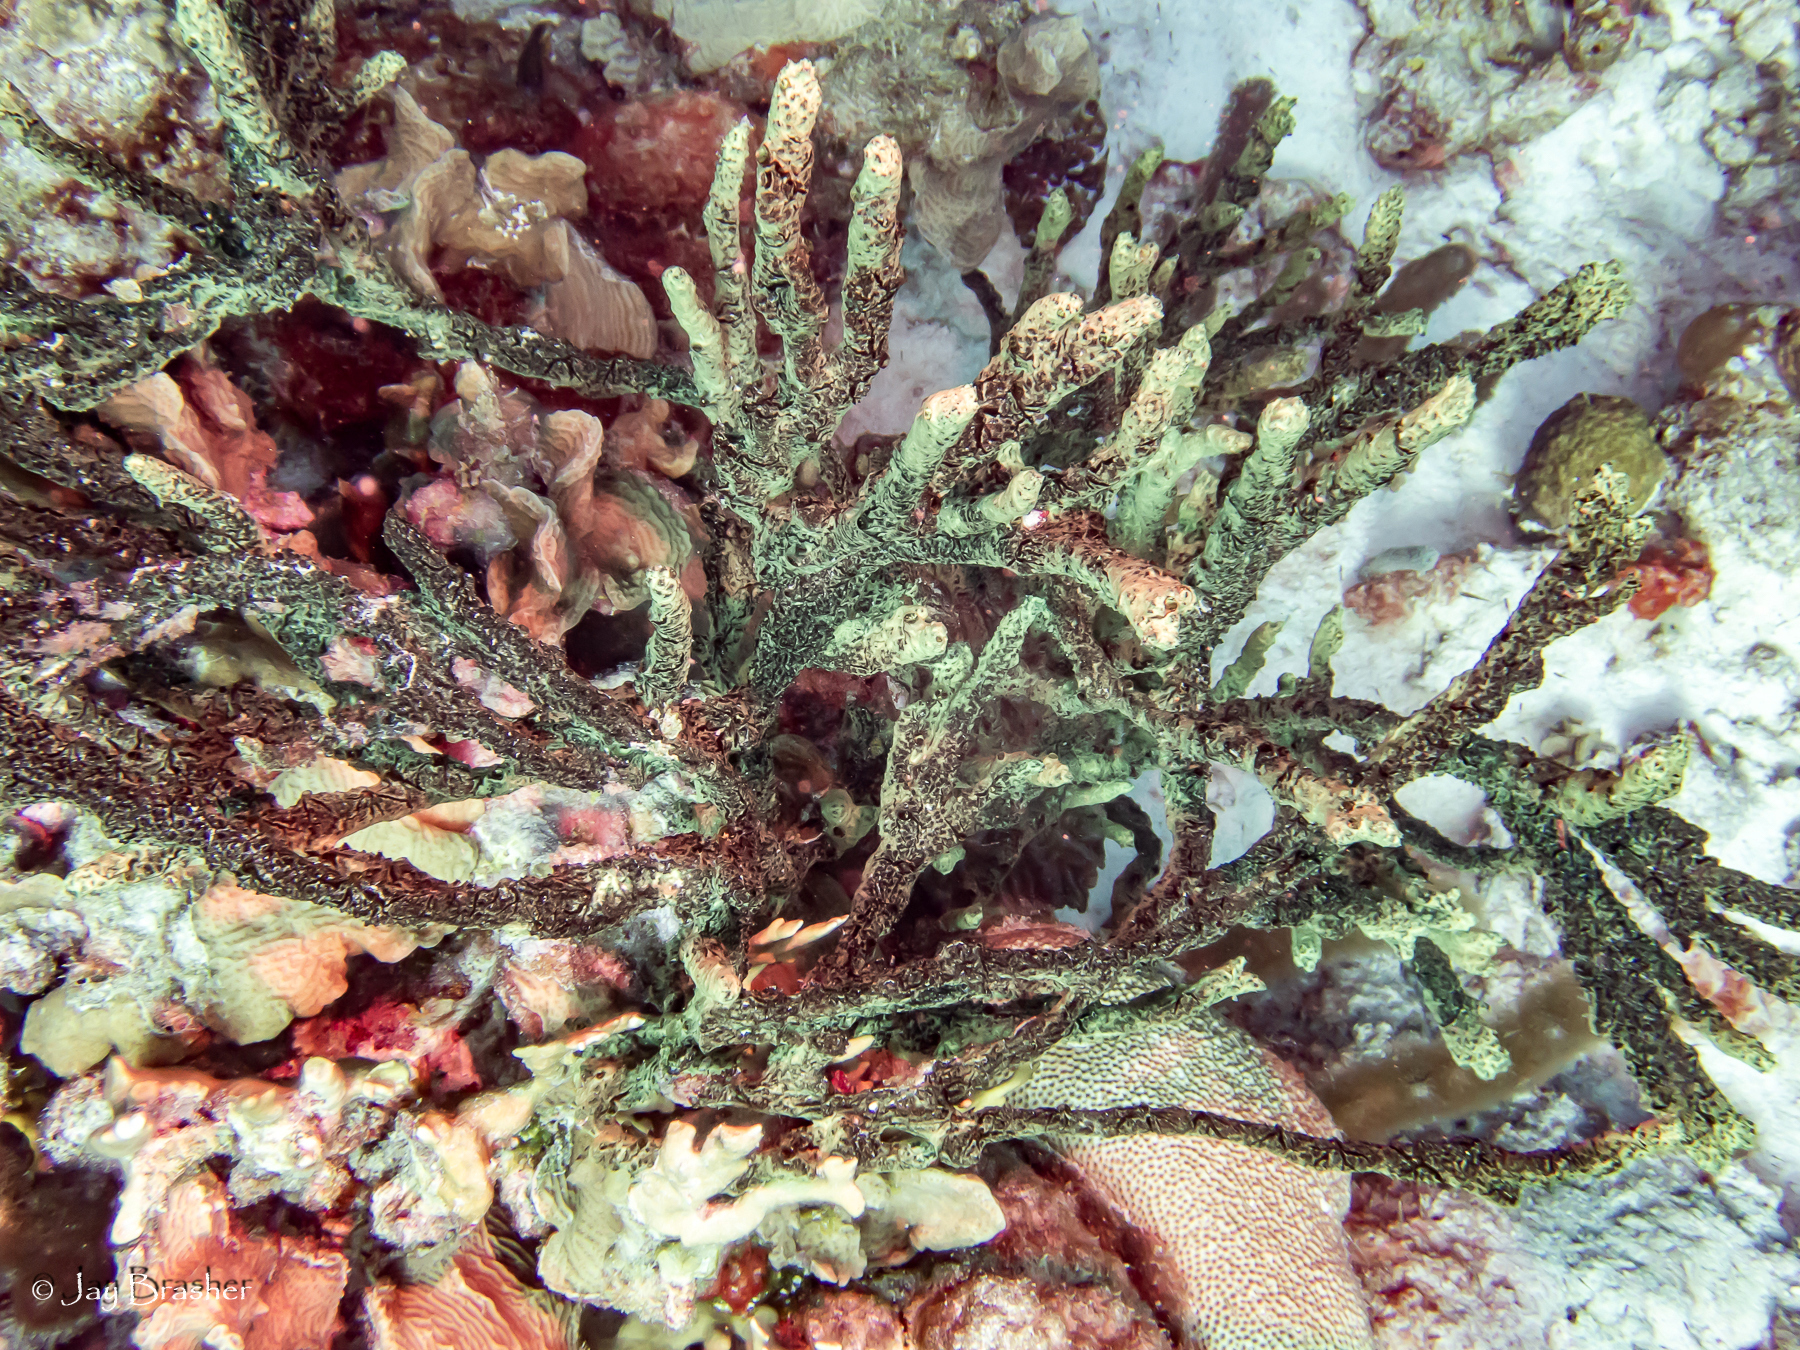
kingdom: Animalia
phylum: Porifera
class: Demospongiae
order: Poecilosclerida
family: Iotrochotidae
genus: Iotrochota
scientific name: Iotrochota birotulata
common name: Purple bleeding sponge
